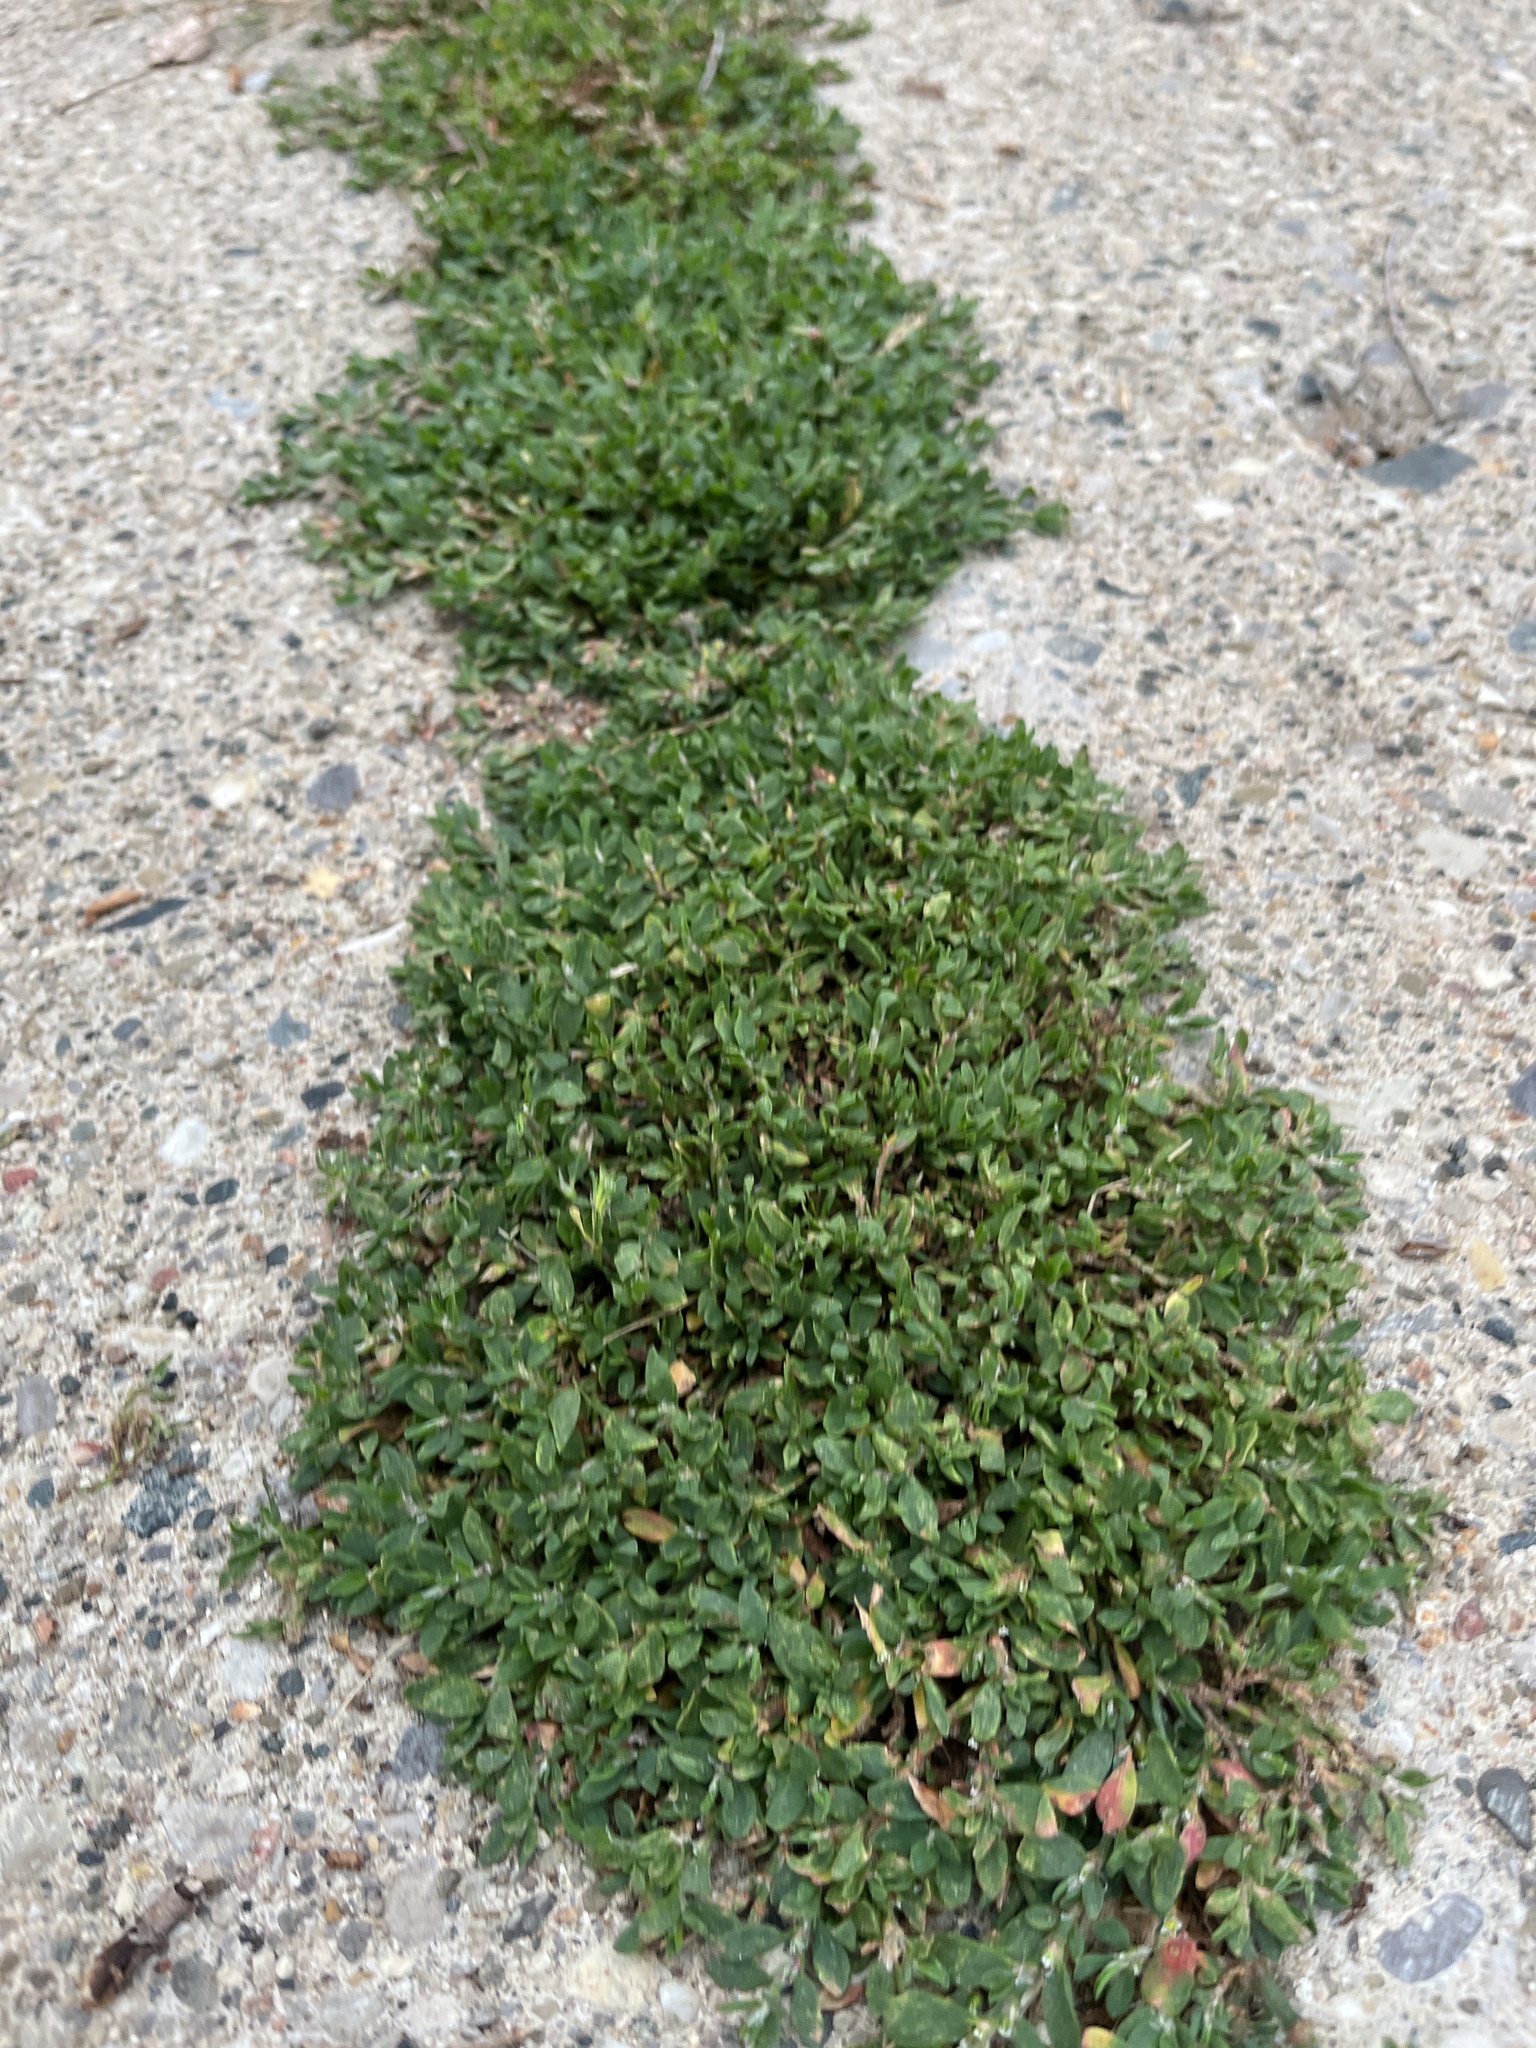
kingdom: Plantae
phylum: Tracheophyta
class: Magnoliopsida
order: Caryophyllales
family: Polygonaceae
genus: Polygonum
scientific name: Polygonum aviculare
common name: Prostrate knotweed
